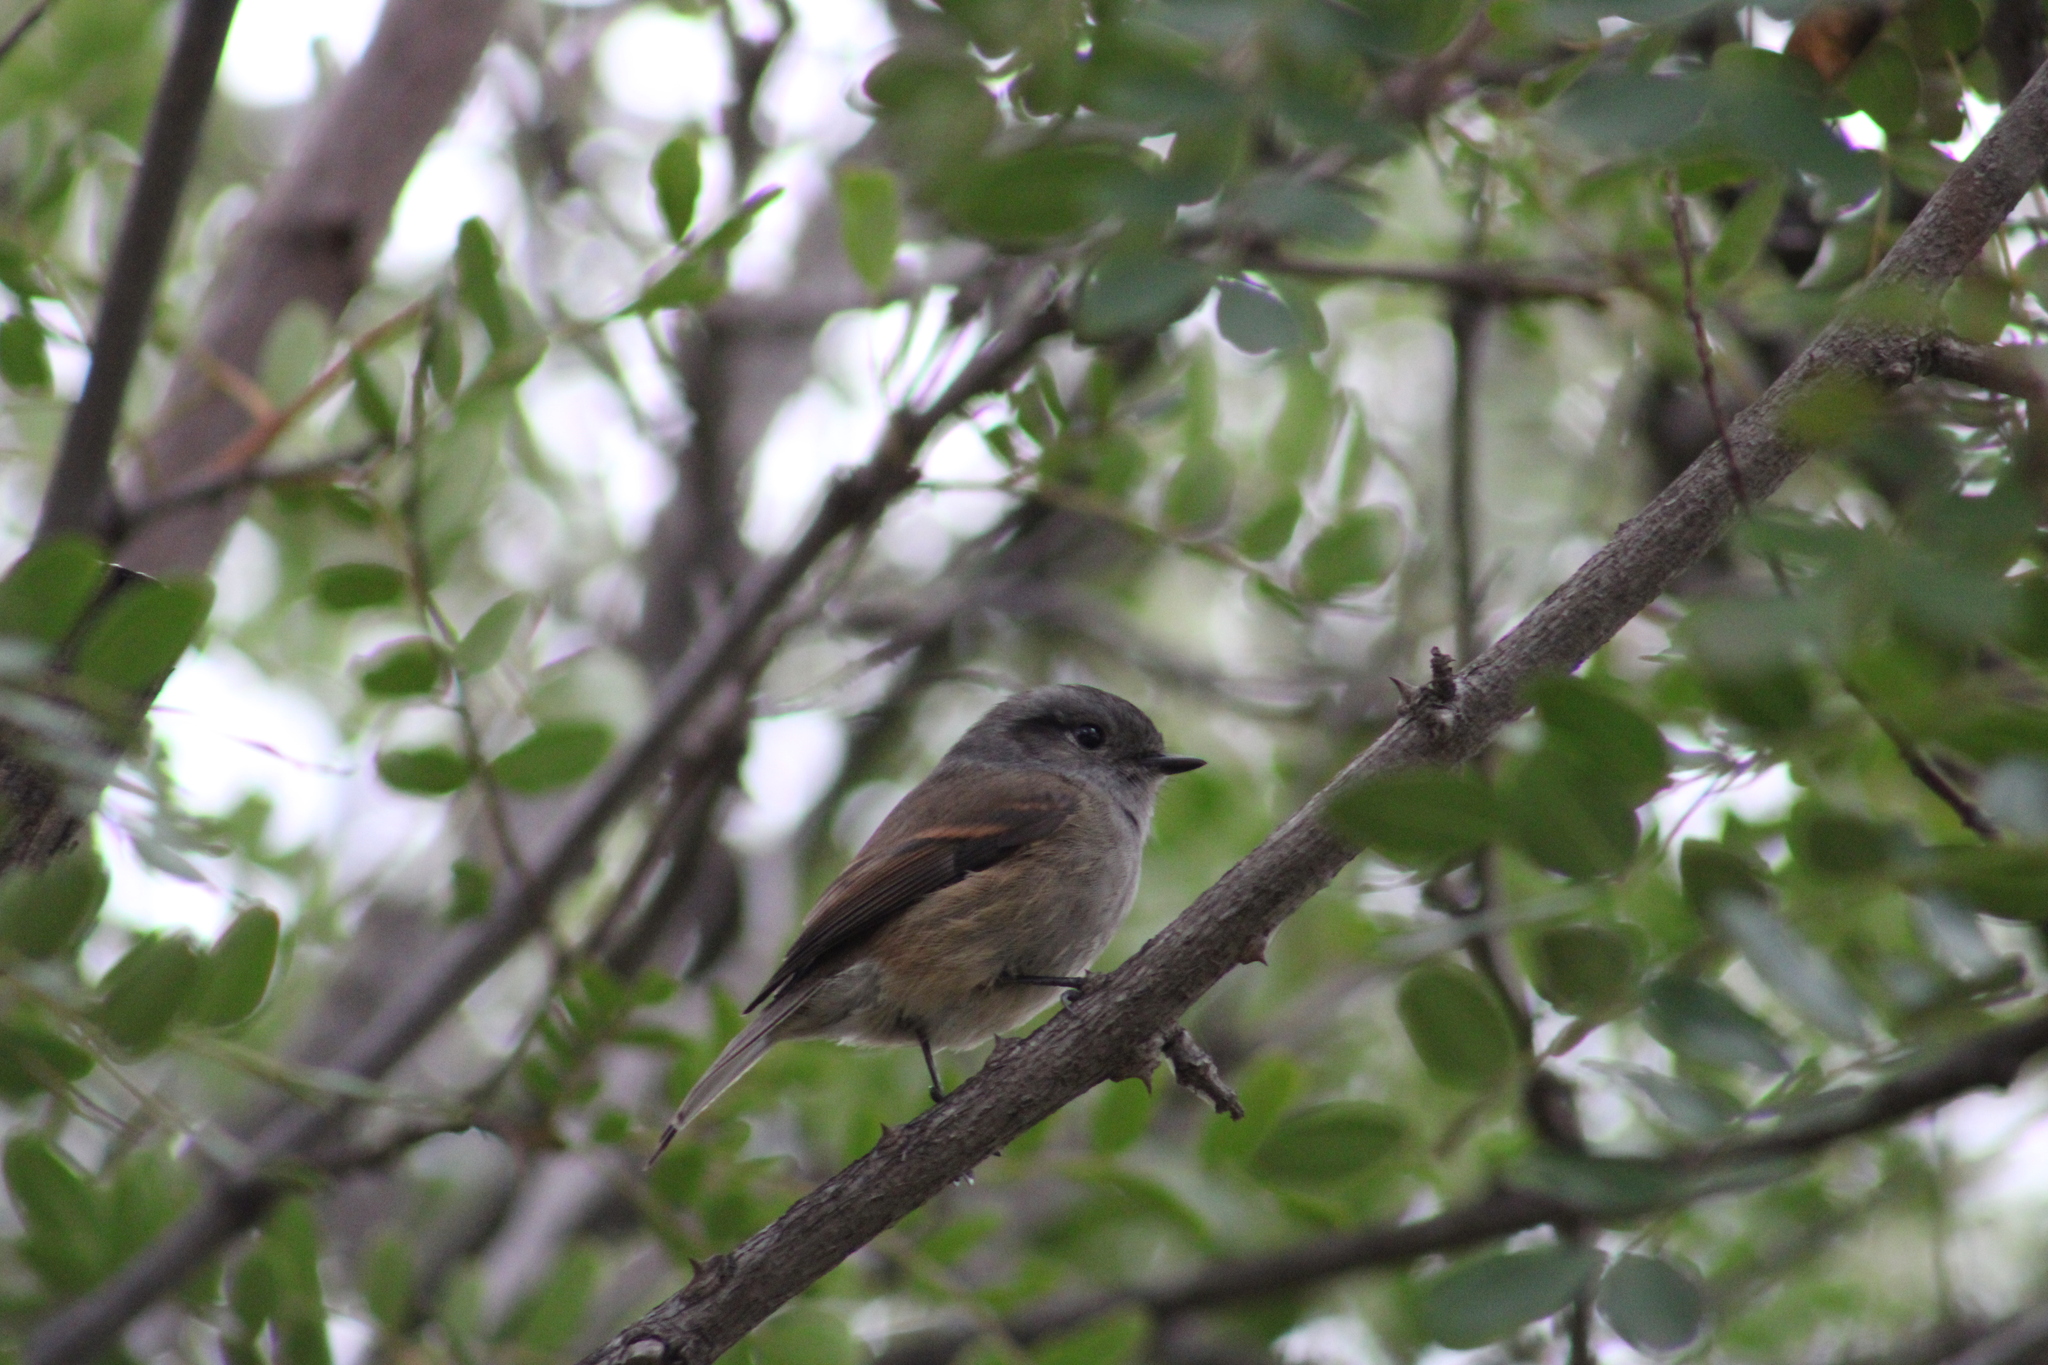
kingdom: Animalia
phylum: Chordata
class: Aves
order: Passeriformes
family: Tyrannidae
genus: Colorhamphus
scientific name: Colorhamphus parvirostris
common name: Patagonian tyrant
